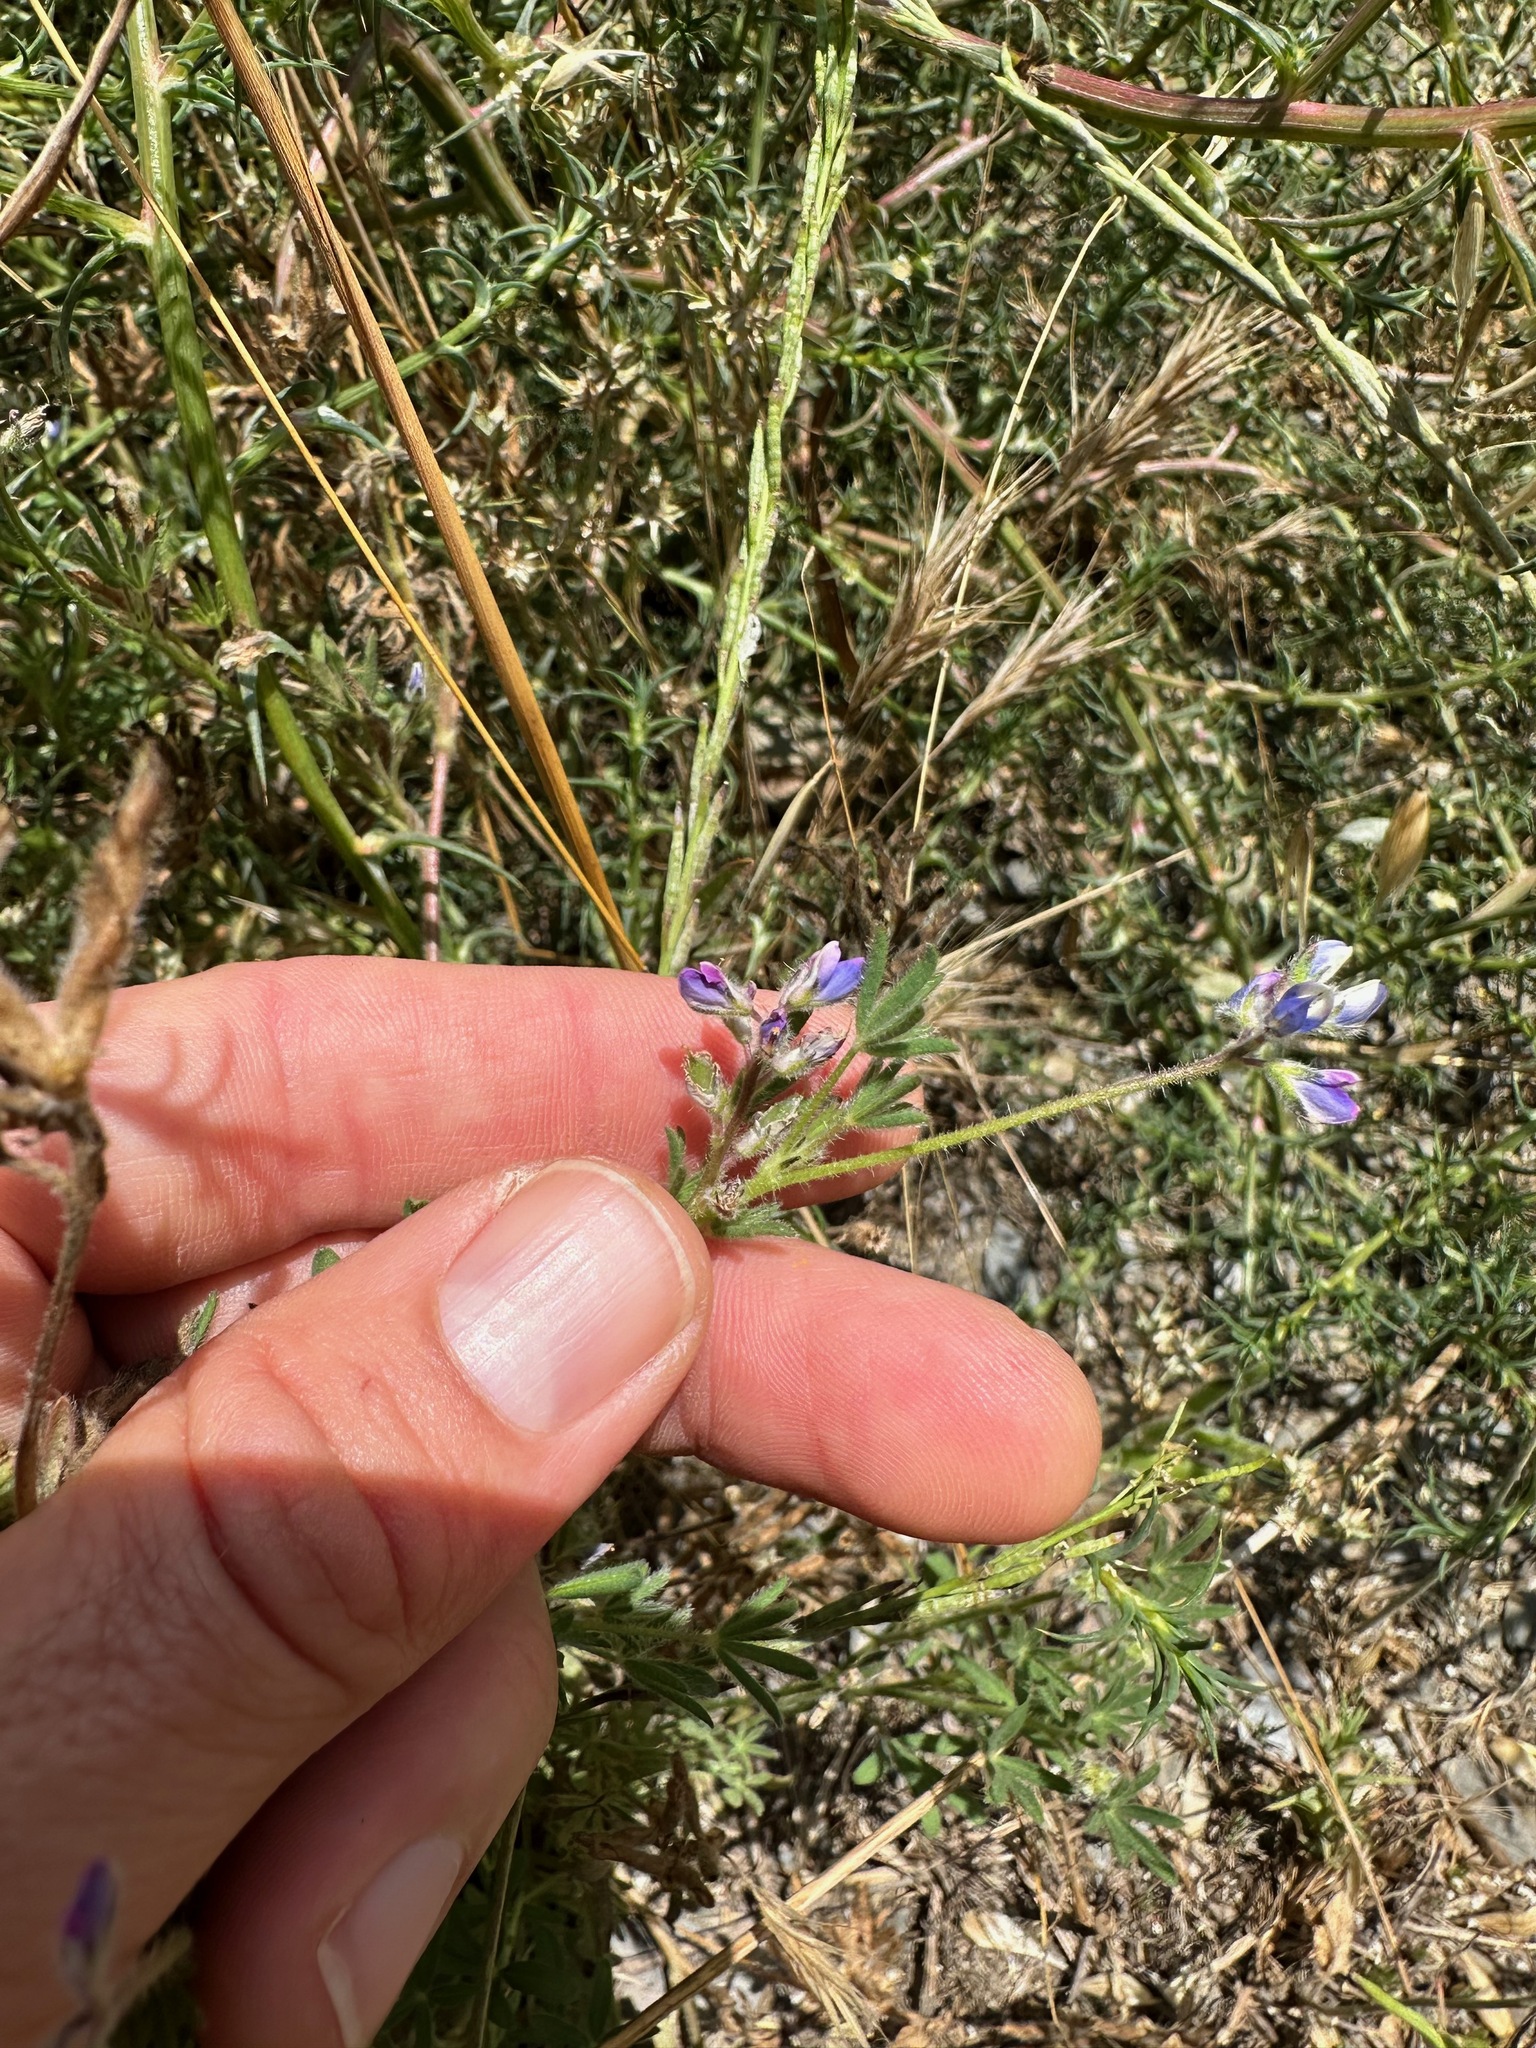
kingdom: Plantae
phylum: Tracheophyta
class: Magnoliopsida
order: Fabales
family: Fabaceae
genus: Lupinus
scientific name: Lupinus bicolor
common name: Miniature lupine
